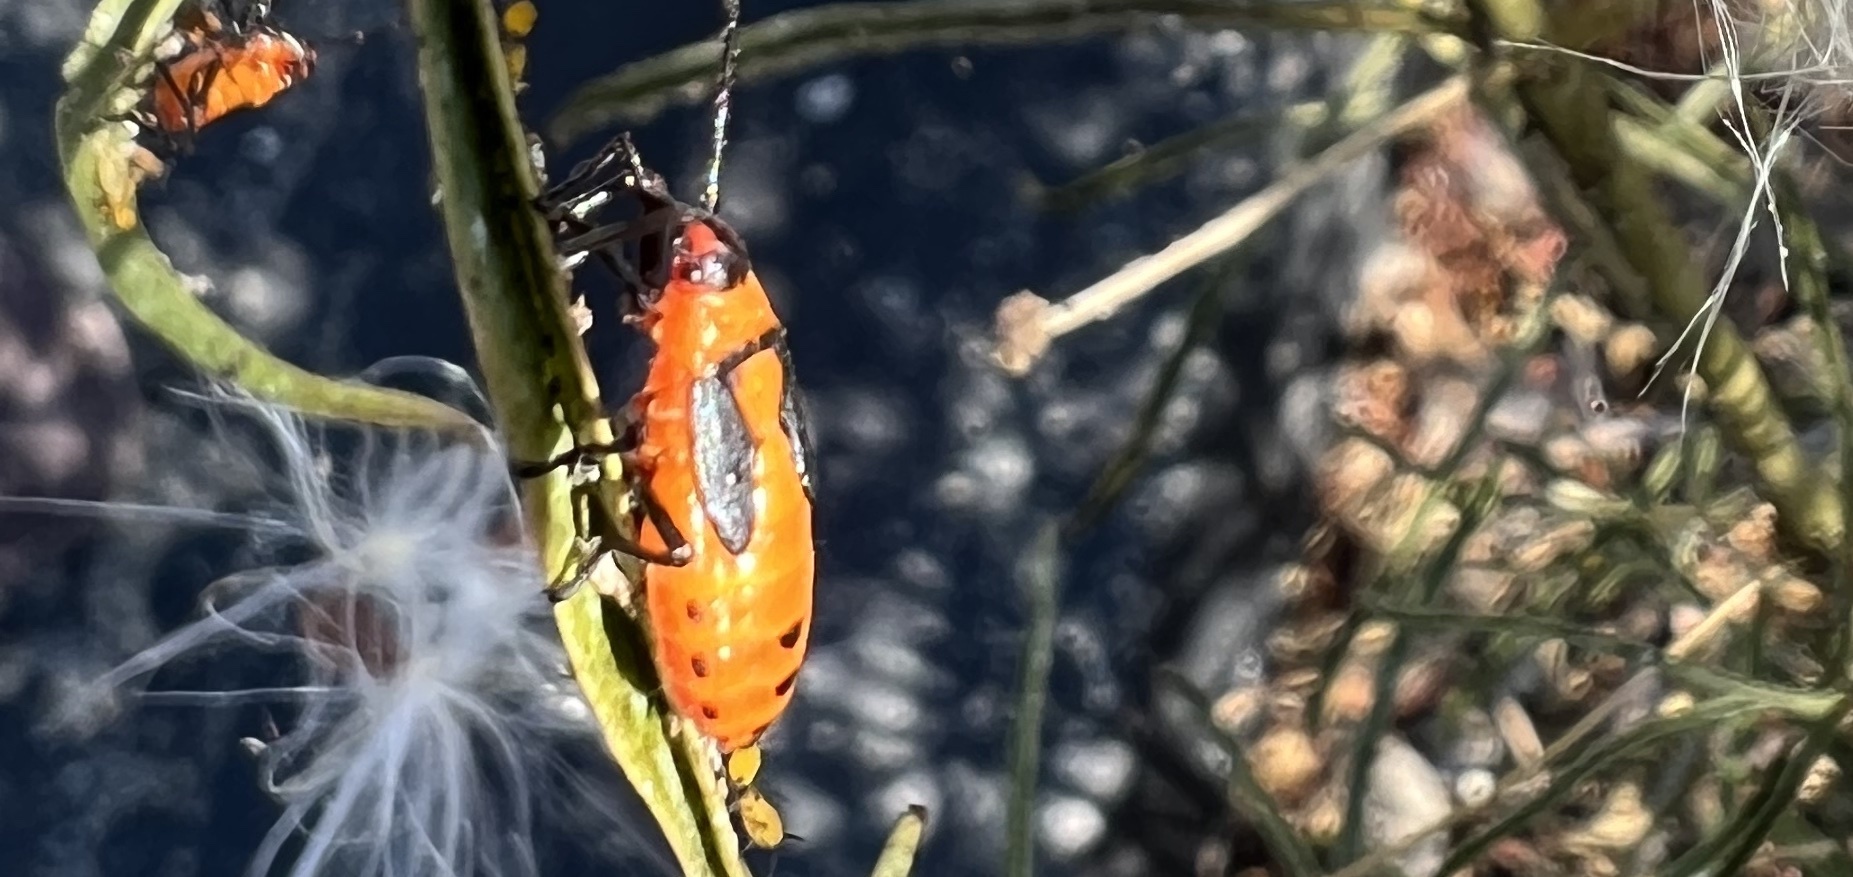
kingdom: Animalia
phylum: Arthropoda
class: Insecta
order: Hemiptera
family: Lygaeidae
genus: Oncopeltus
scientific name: Oncopeltus fasciatus
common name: Large milkweed bug
